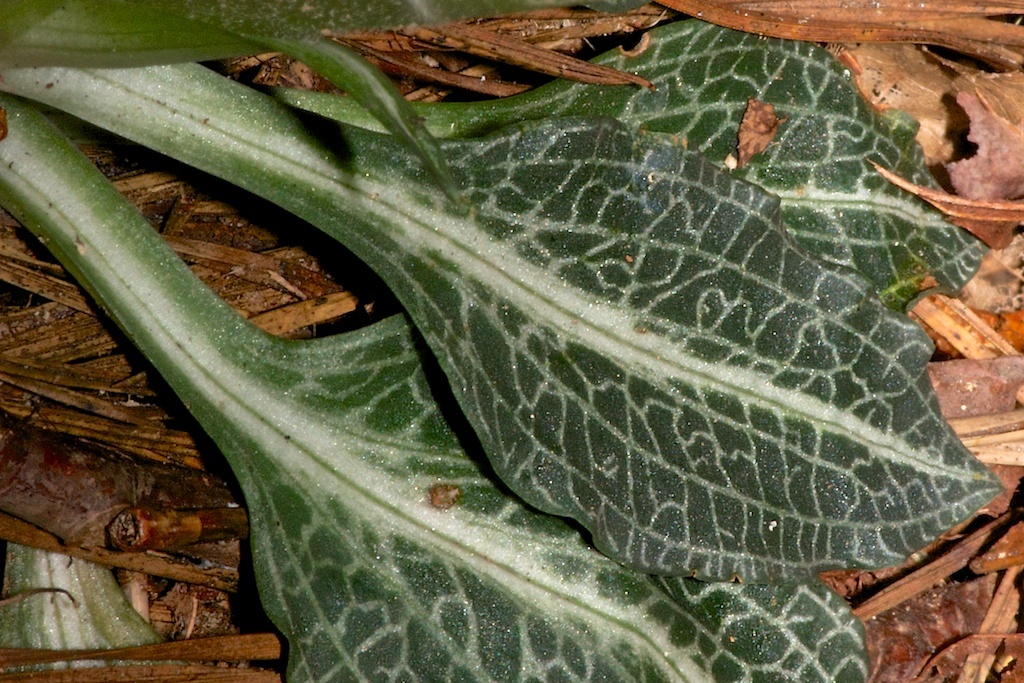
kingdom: Plantae
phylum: Tracheophyta
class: Liliopsida
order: Asparagales
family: Orchidaceae
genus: Goodyera
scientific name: Goodyera pubescens
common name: Downy rattlesnake-plantain
